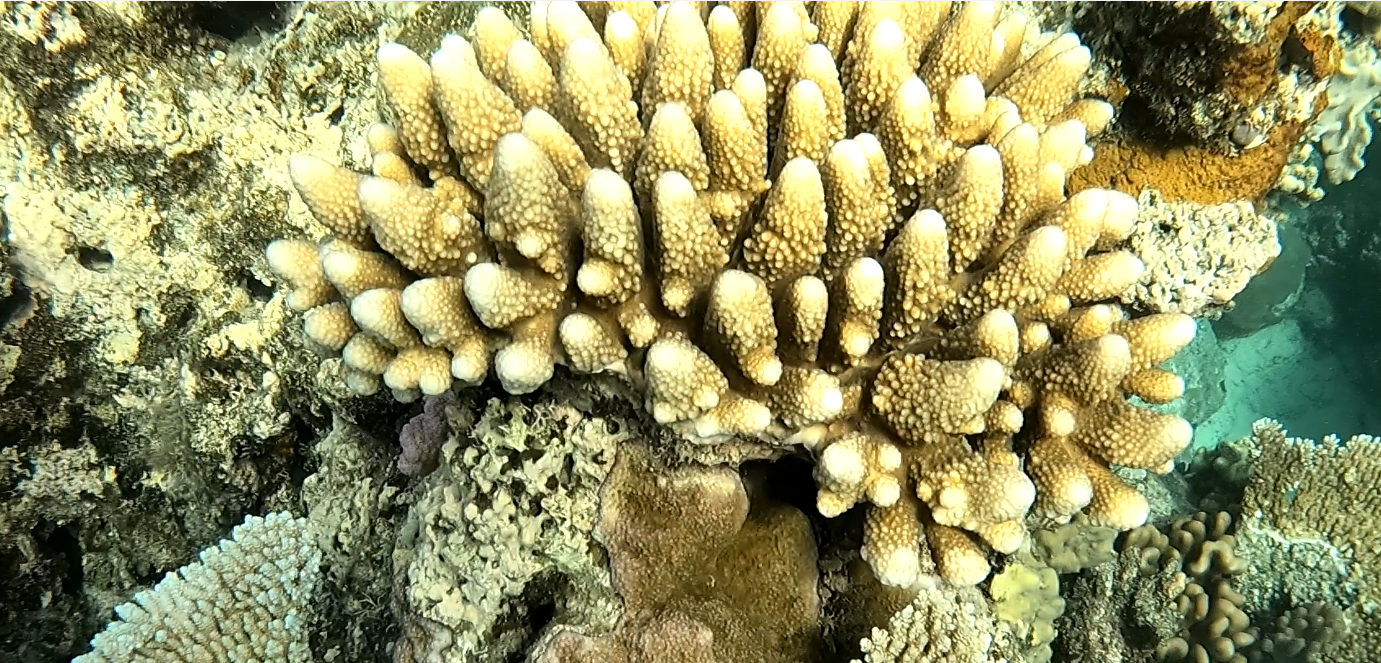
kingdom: Animalia
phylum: Cnidaria
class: Anthozoa
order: Scleractinia
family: Acroporidae
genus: Acropora
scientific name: Acropora gemmifera
